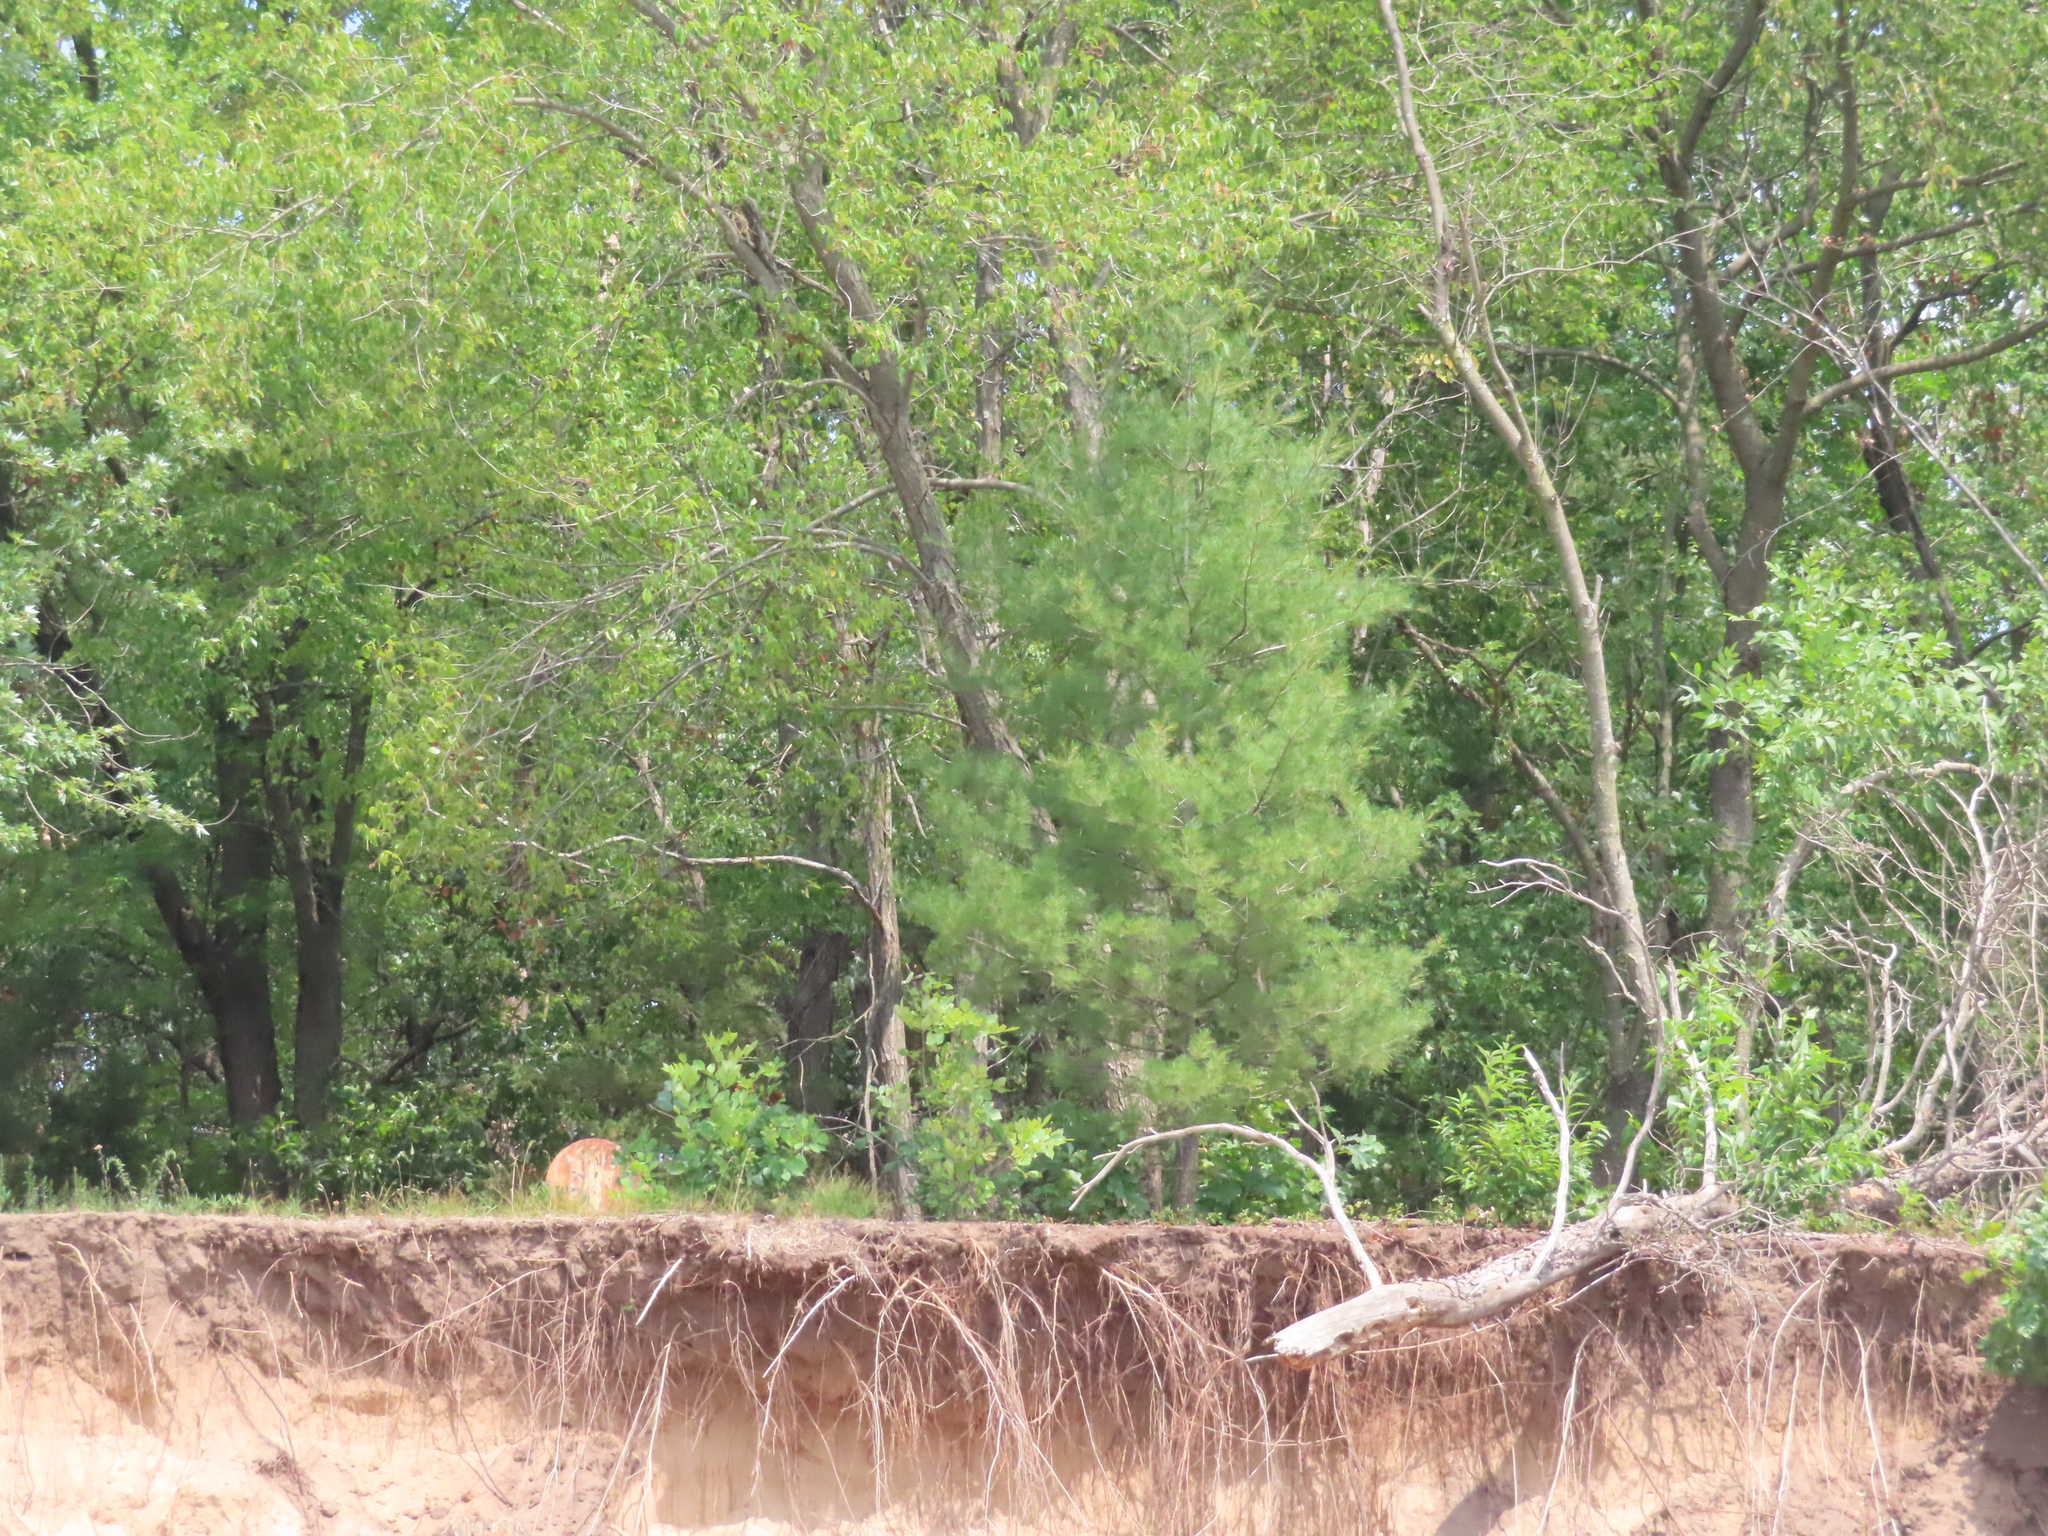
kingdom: Plantae
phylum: Tracheophyta
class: Pinopsida
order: Pinales
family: Pinaceae
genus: Pinus
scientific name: Pinus strobus
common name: Weymouth pine
